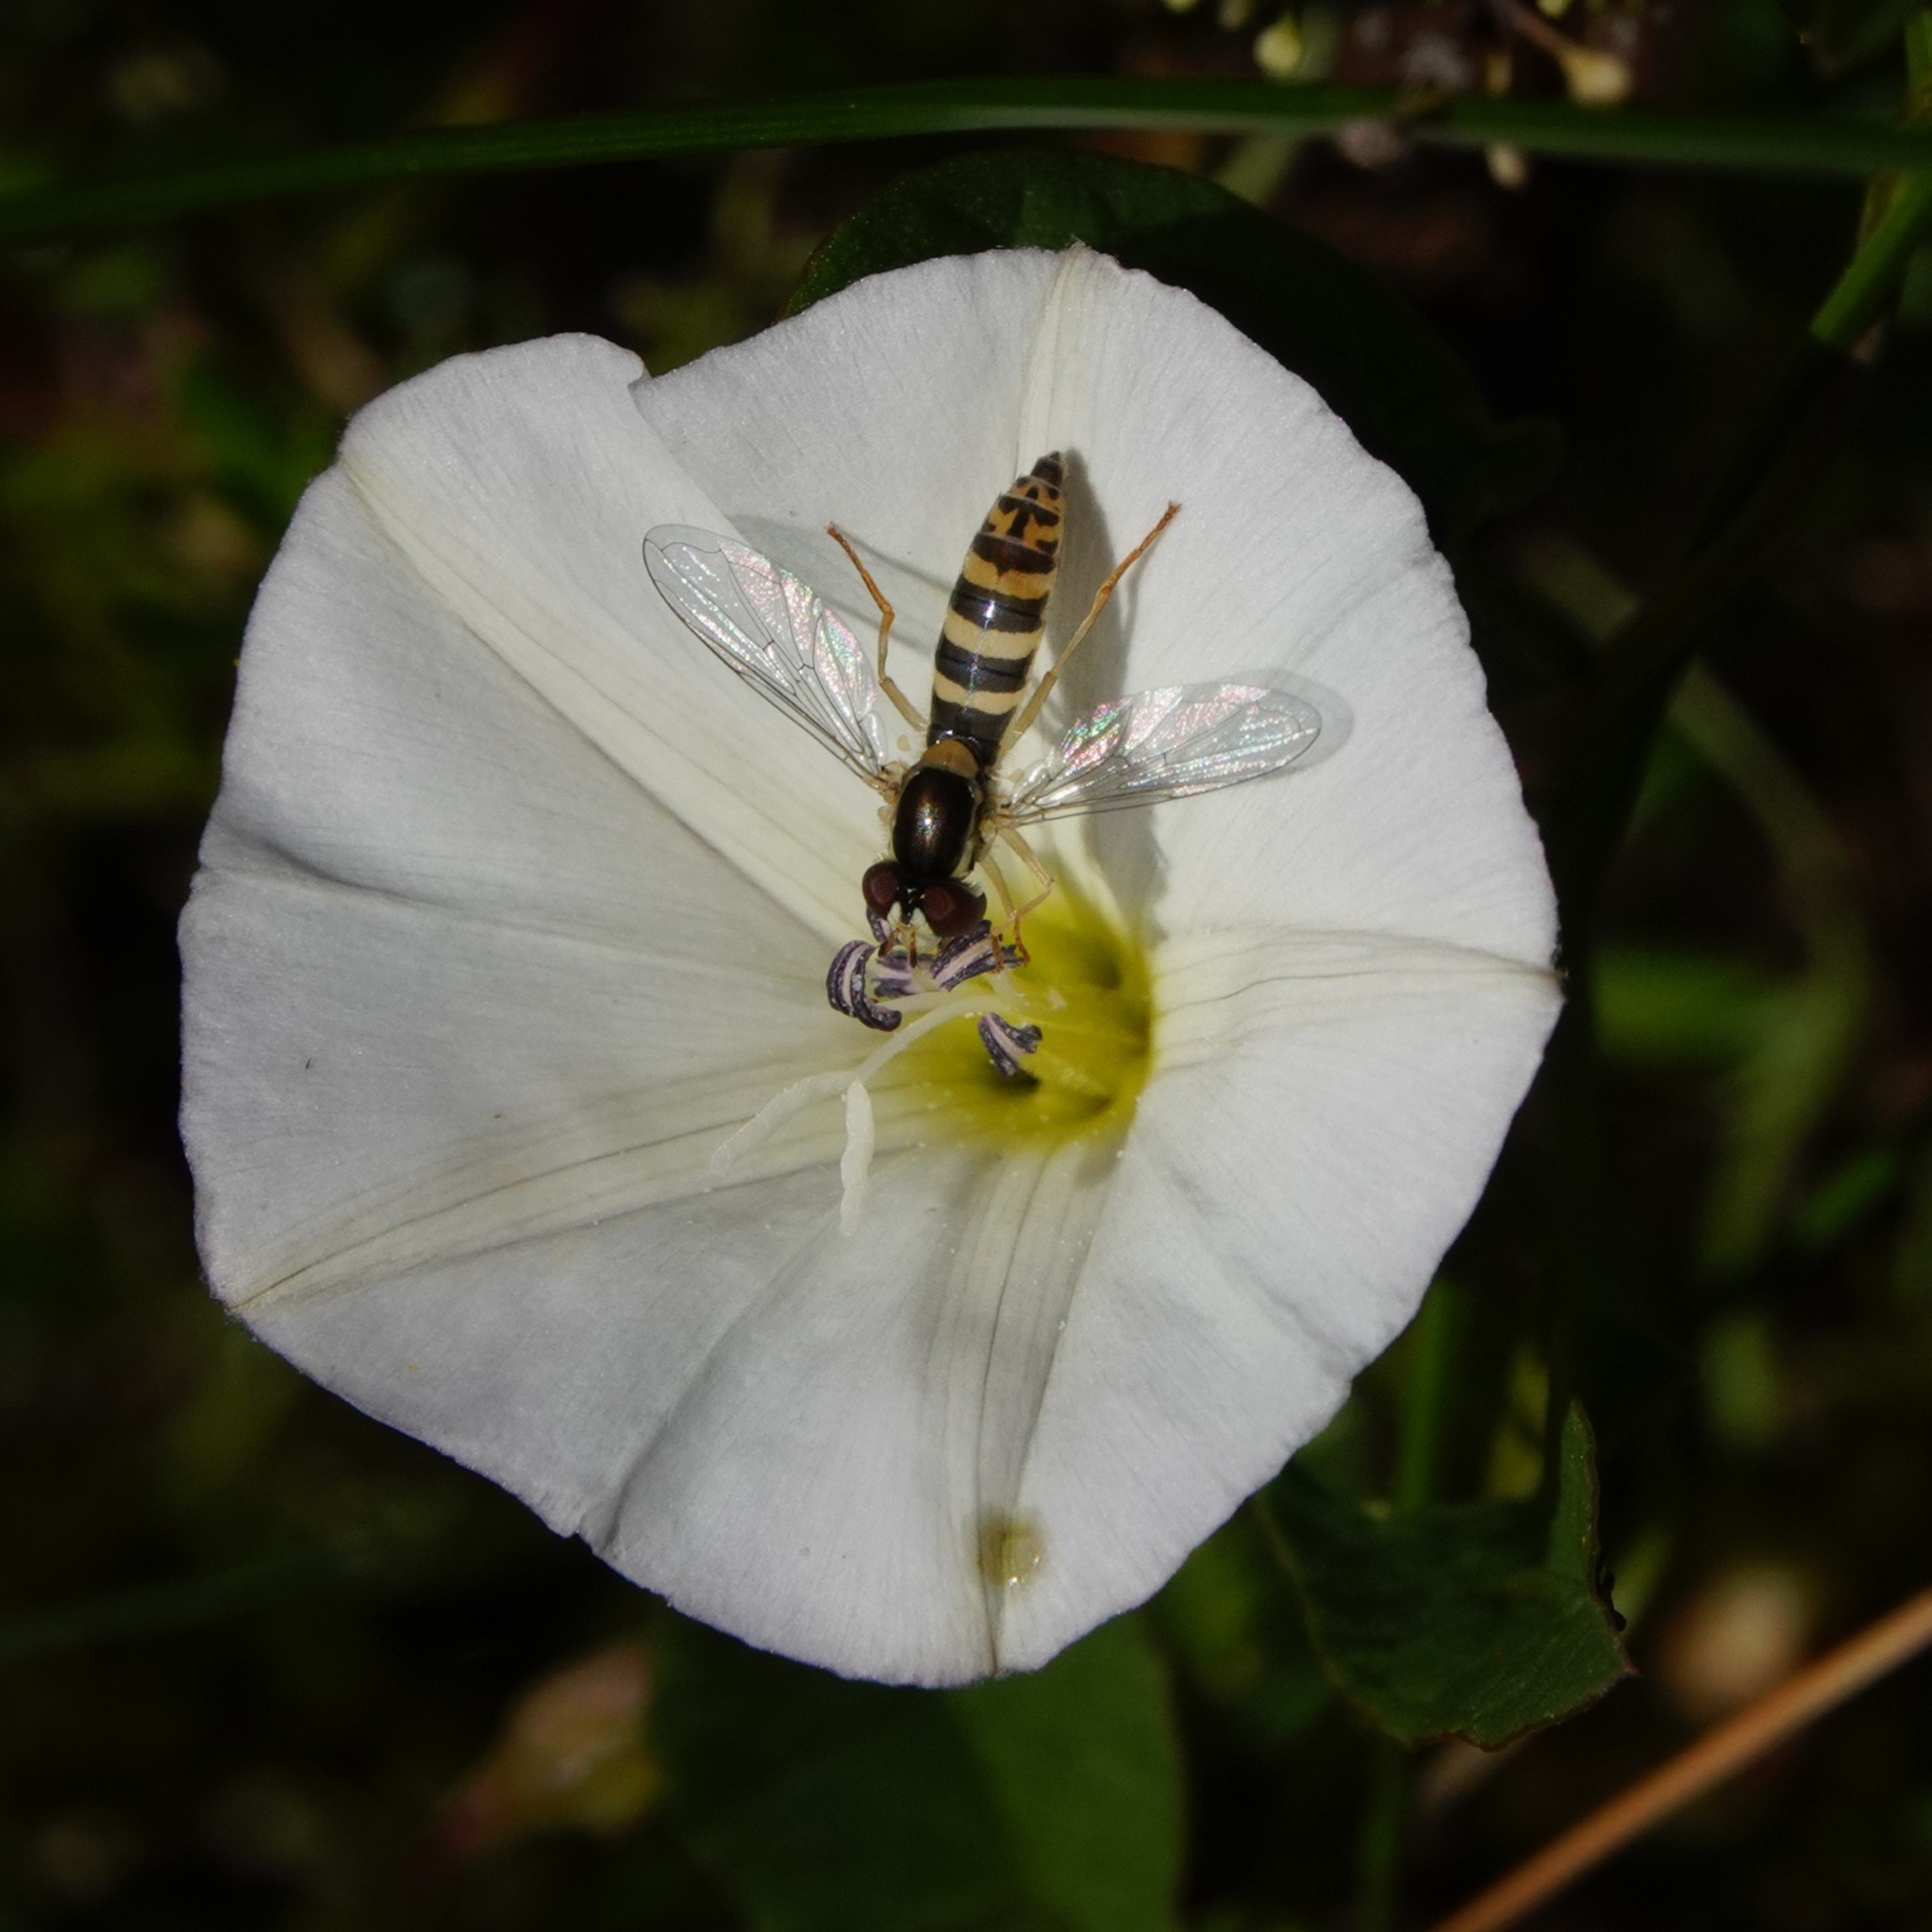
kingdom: Animalia
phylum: Arthropoda
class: Insecta
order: Diptera
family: Syrphidae
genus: Sphaerophoria
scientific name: Sphaerophoria
